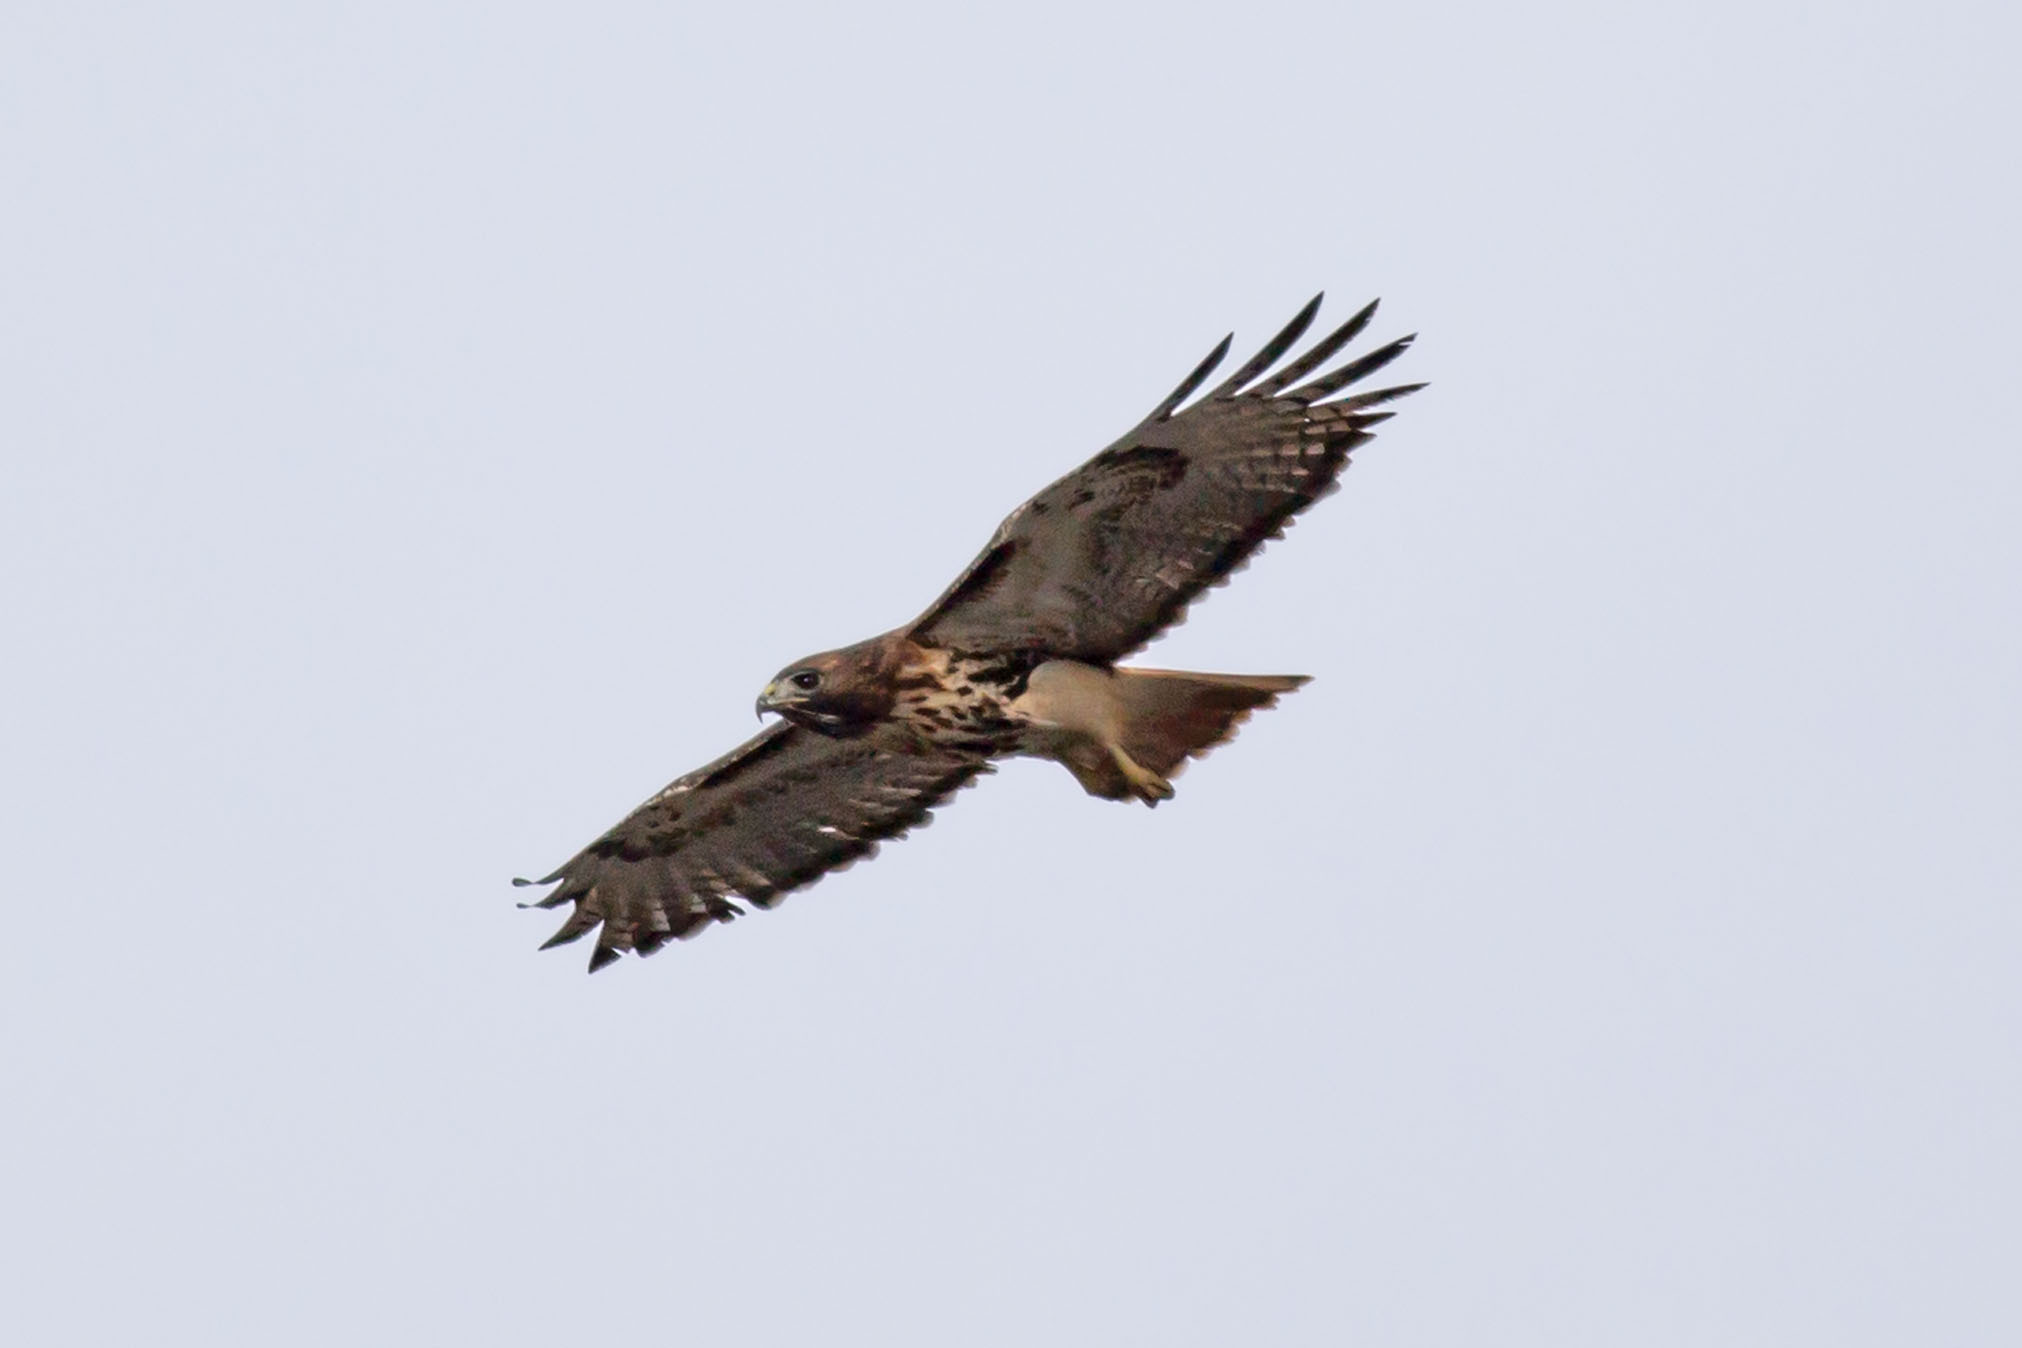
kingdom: Animalia
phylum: Chordata
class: Aves
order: Accipitriformes
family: Accipitridae
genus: Buteo
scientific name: Buteo jamaicensis
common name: Red-tailed hawk
